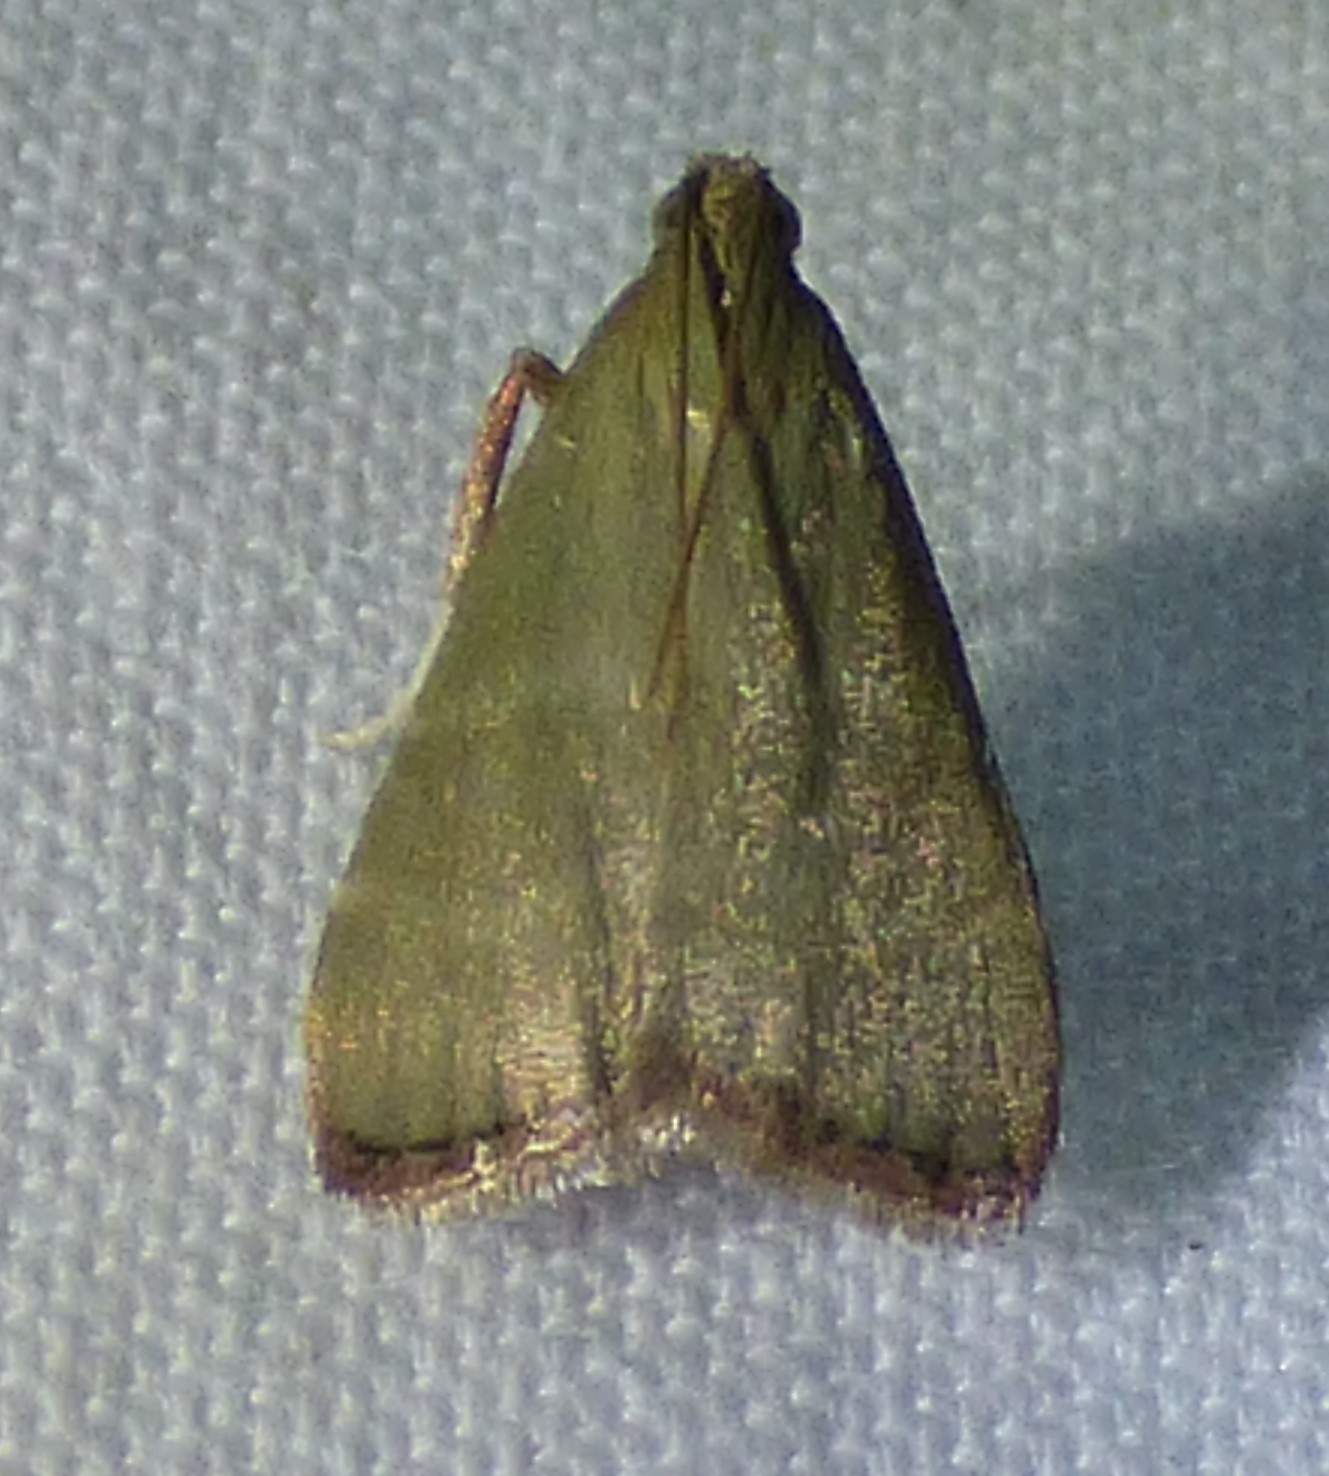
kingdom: Animalia
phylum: Arthropoda
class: Insecta
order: Lepidoptera
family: Pyralidae
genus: Arta
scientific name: Arta olivalis
